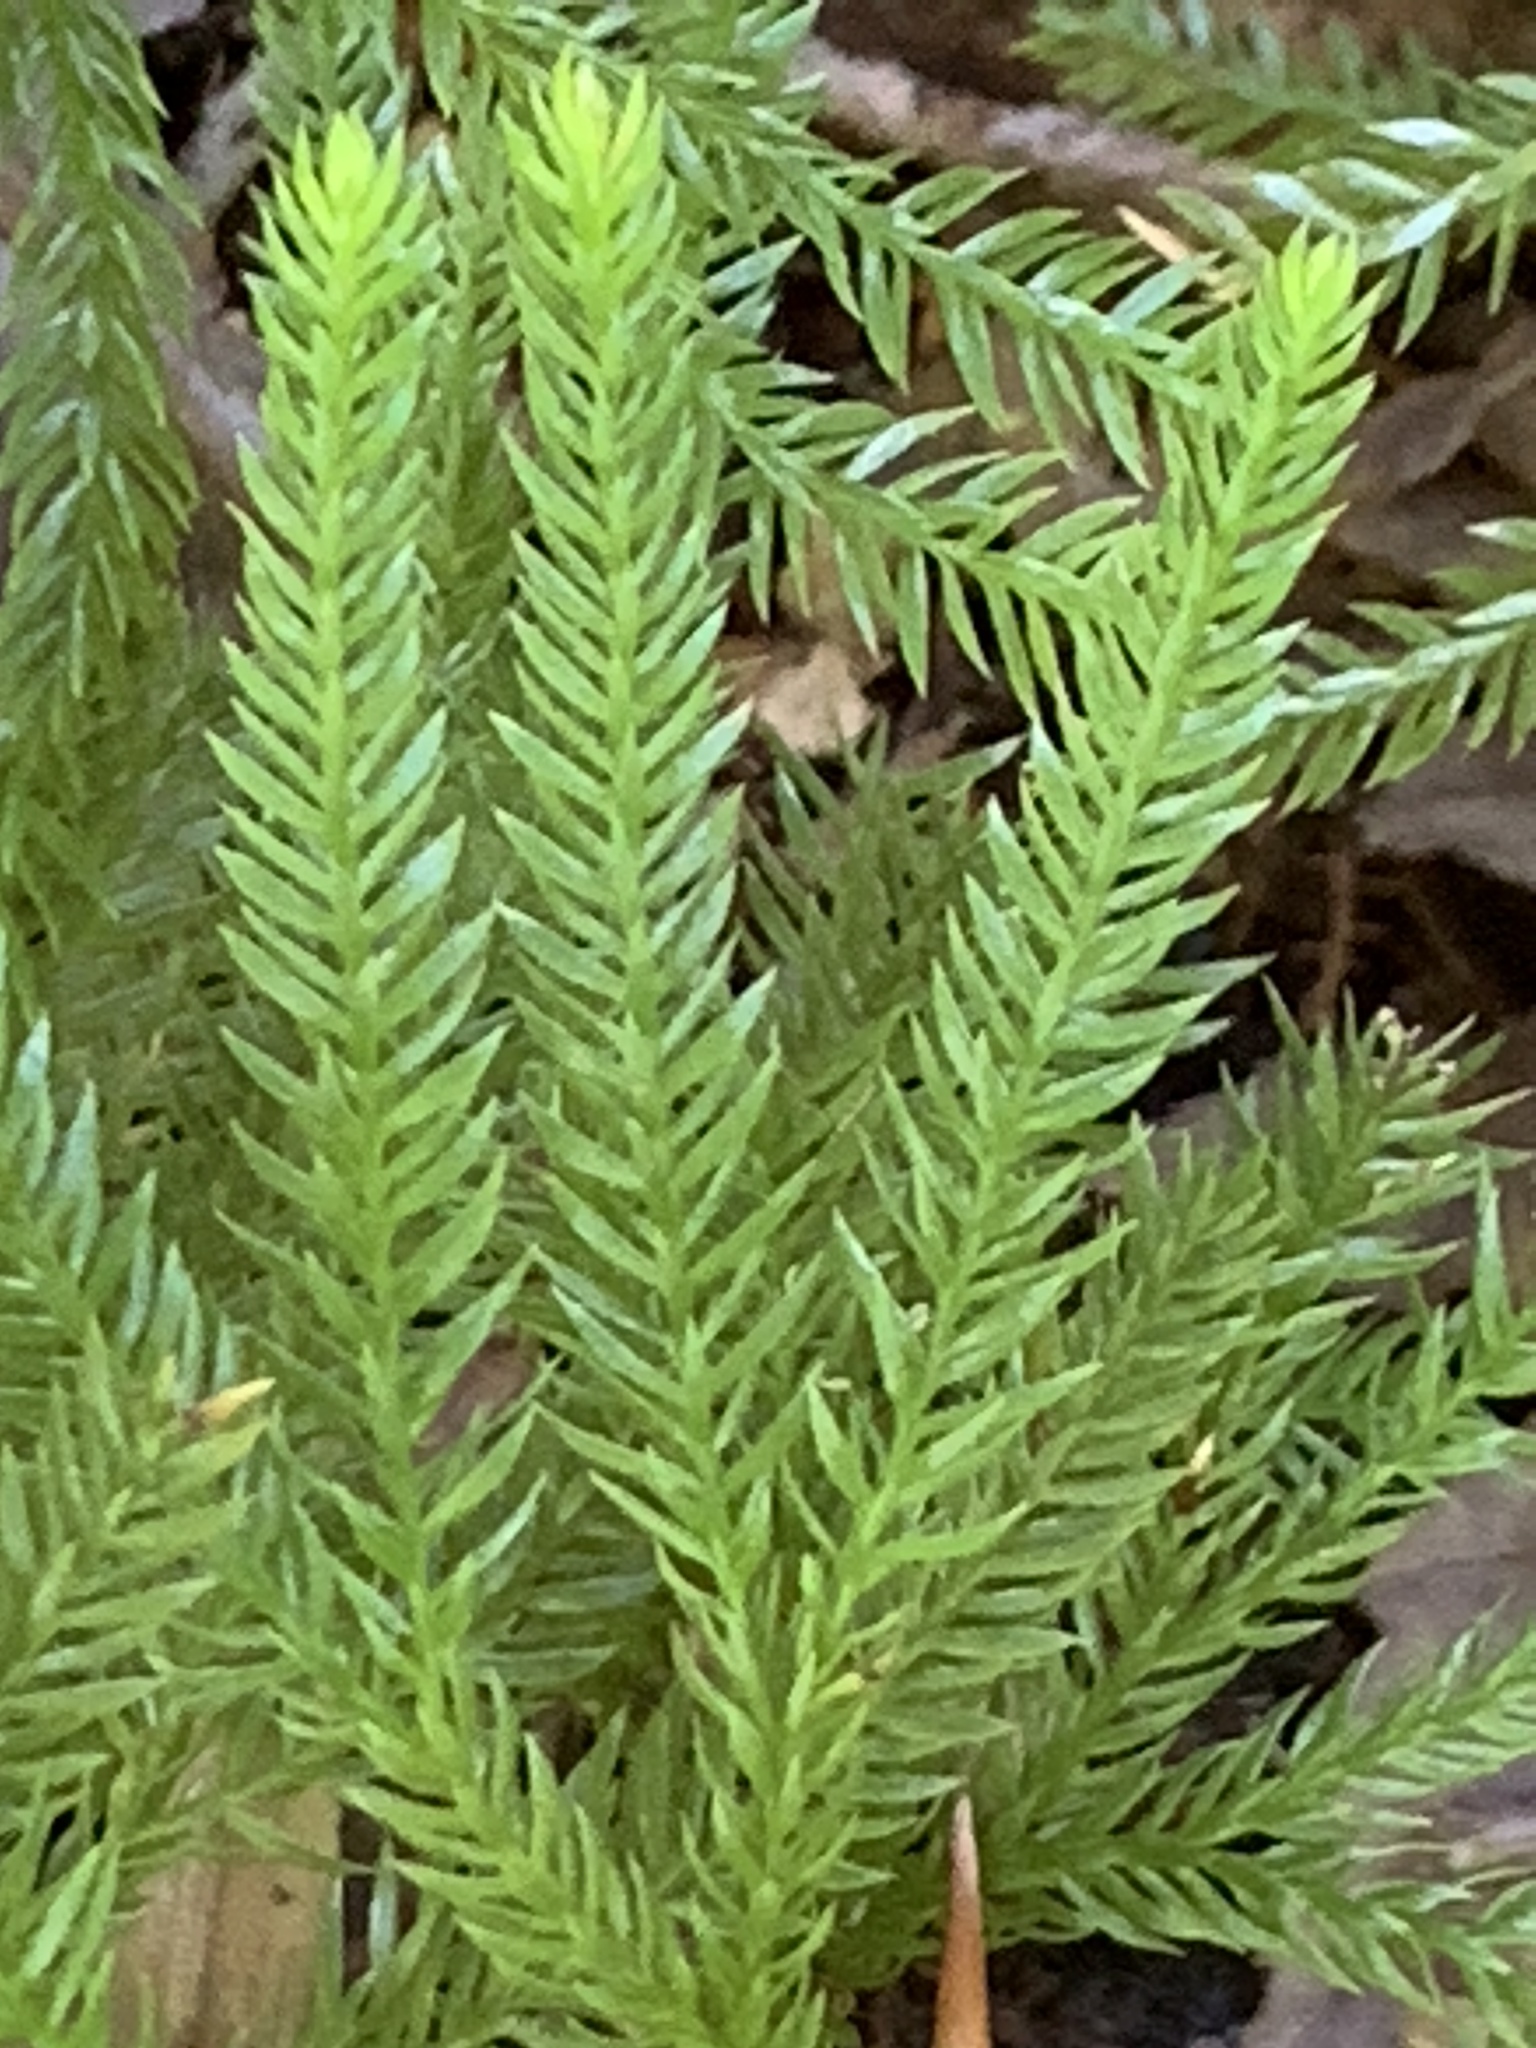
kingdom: Plantae
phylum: Tracheophyta
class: Lycopodiopsida
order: Lycopodiales
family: Lycopodiaceae
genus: Dendrolycopodium
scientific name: Dendrolycopodium obscurum
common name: Common ground-pine
